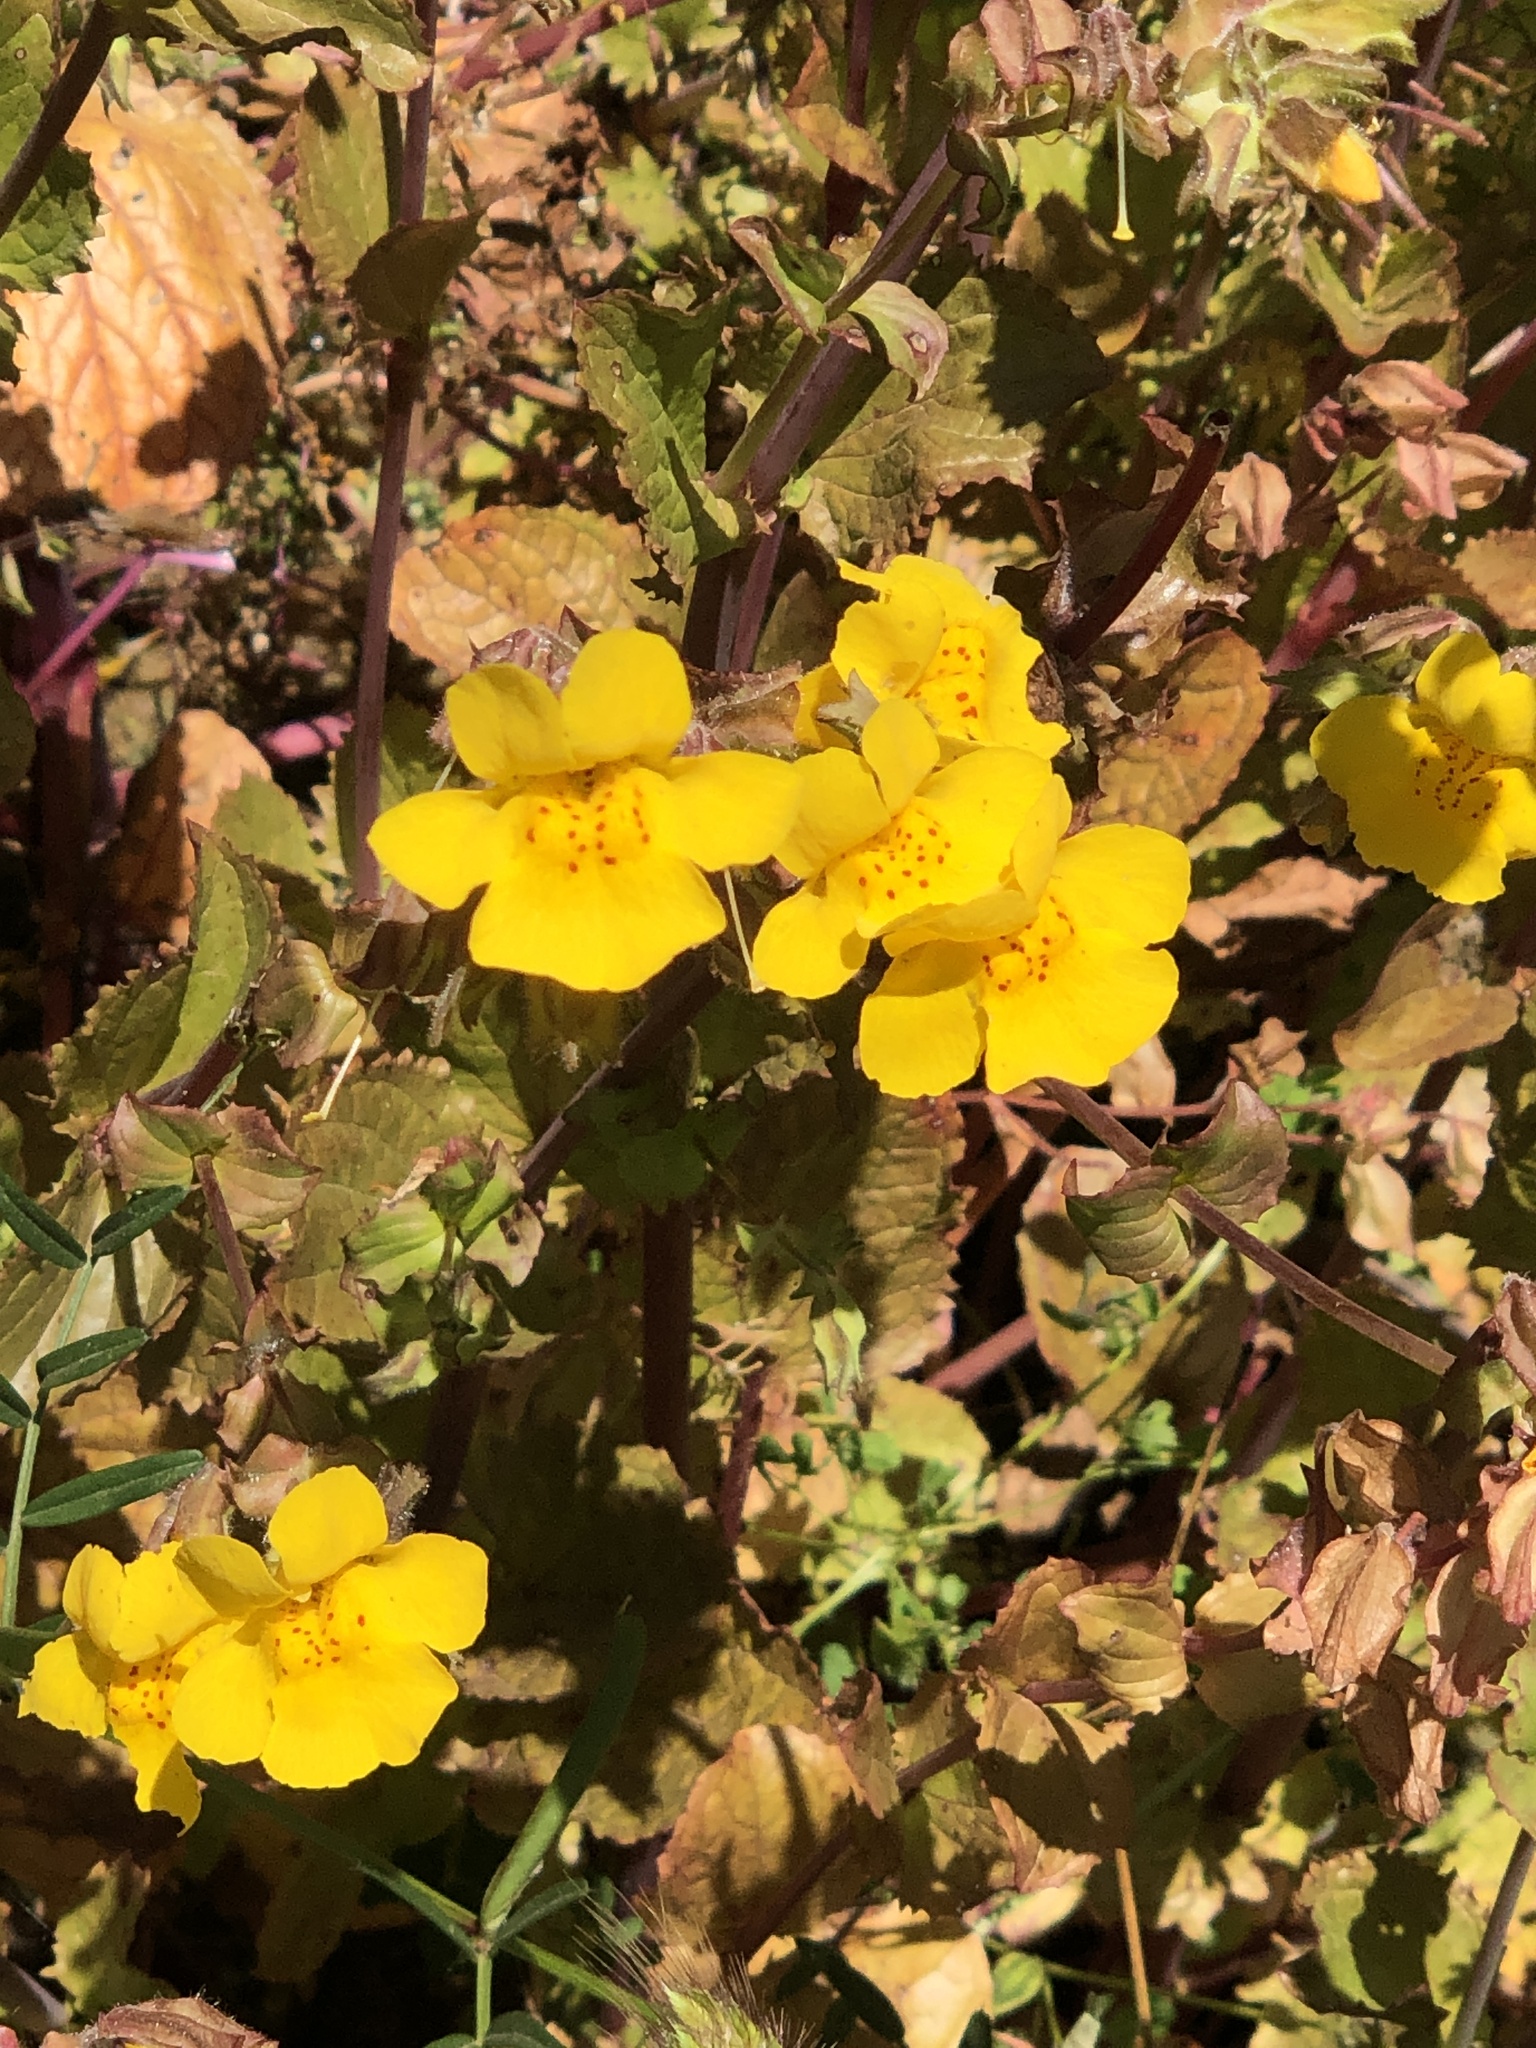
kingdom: Plantae
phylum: Tracheophyta
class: Magnoliopsida
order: Lamiales
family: Phrymaceae
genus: Erythranthe
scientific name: Erythranthe guttata
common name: Monkeyflower
